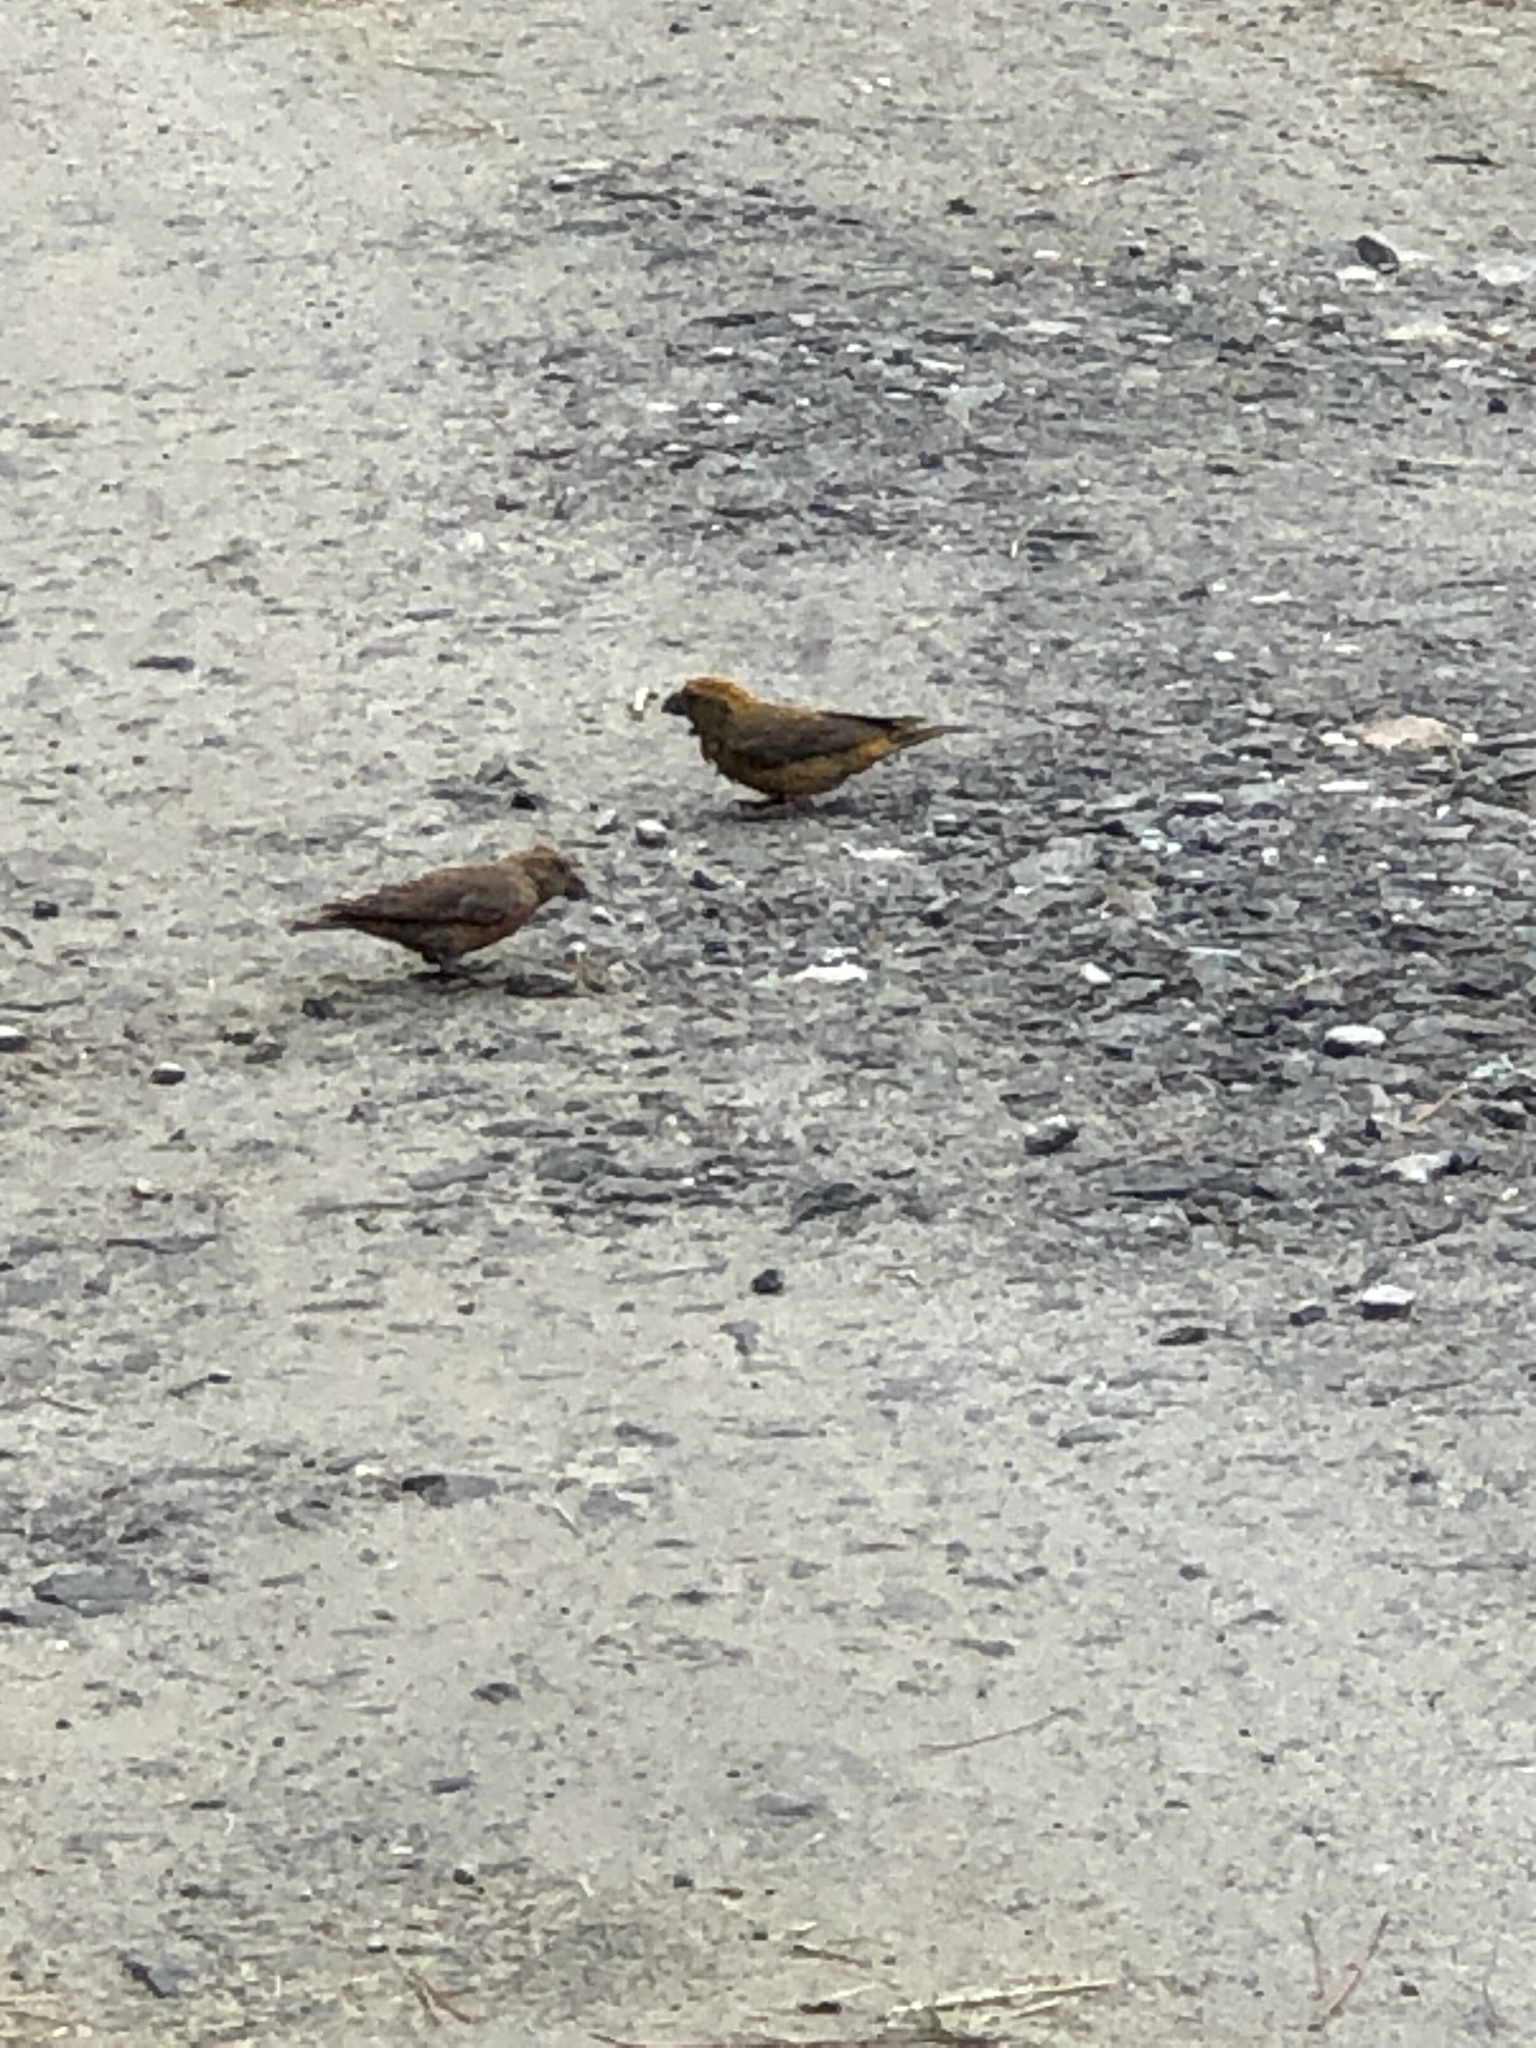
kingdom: Animalia
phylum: Chordata
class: Aves
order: Passeriformes
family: Fringillidae
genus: Loxia
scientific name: Loxia curvirostra
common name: Red crossbill
